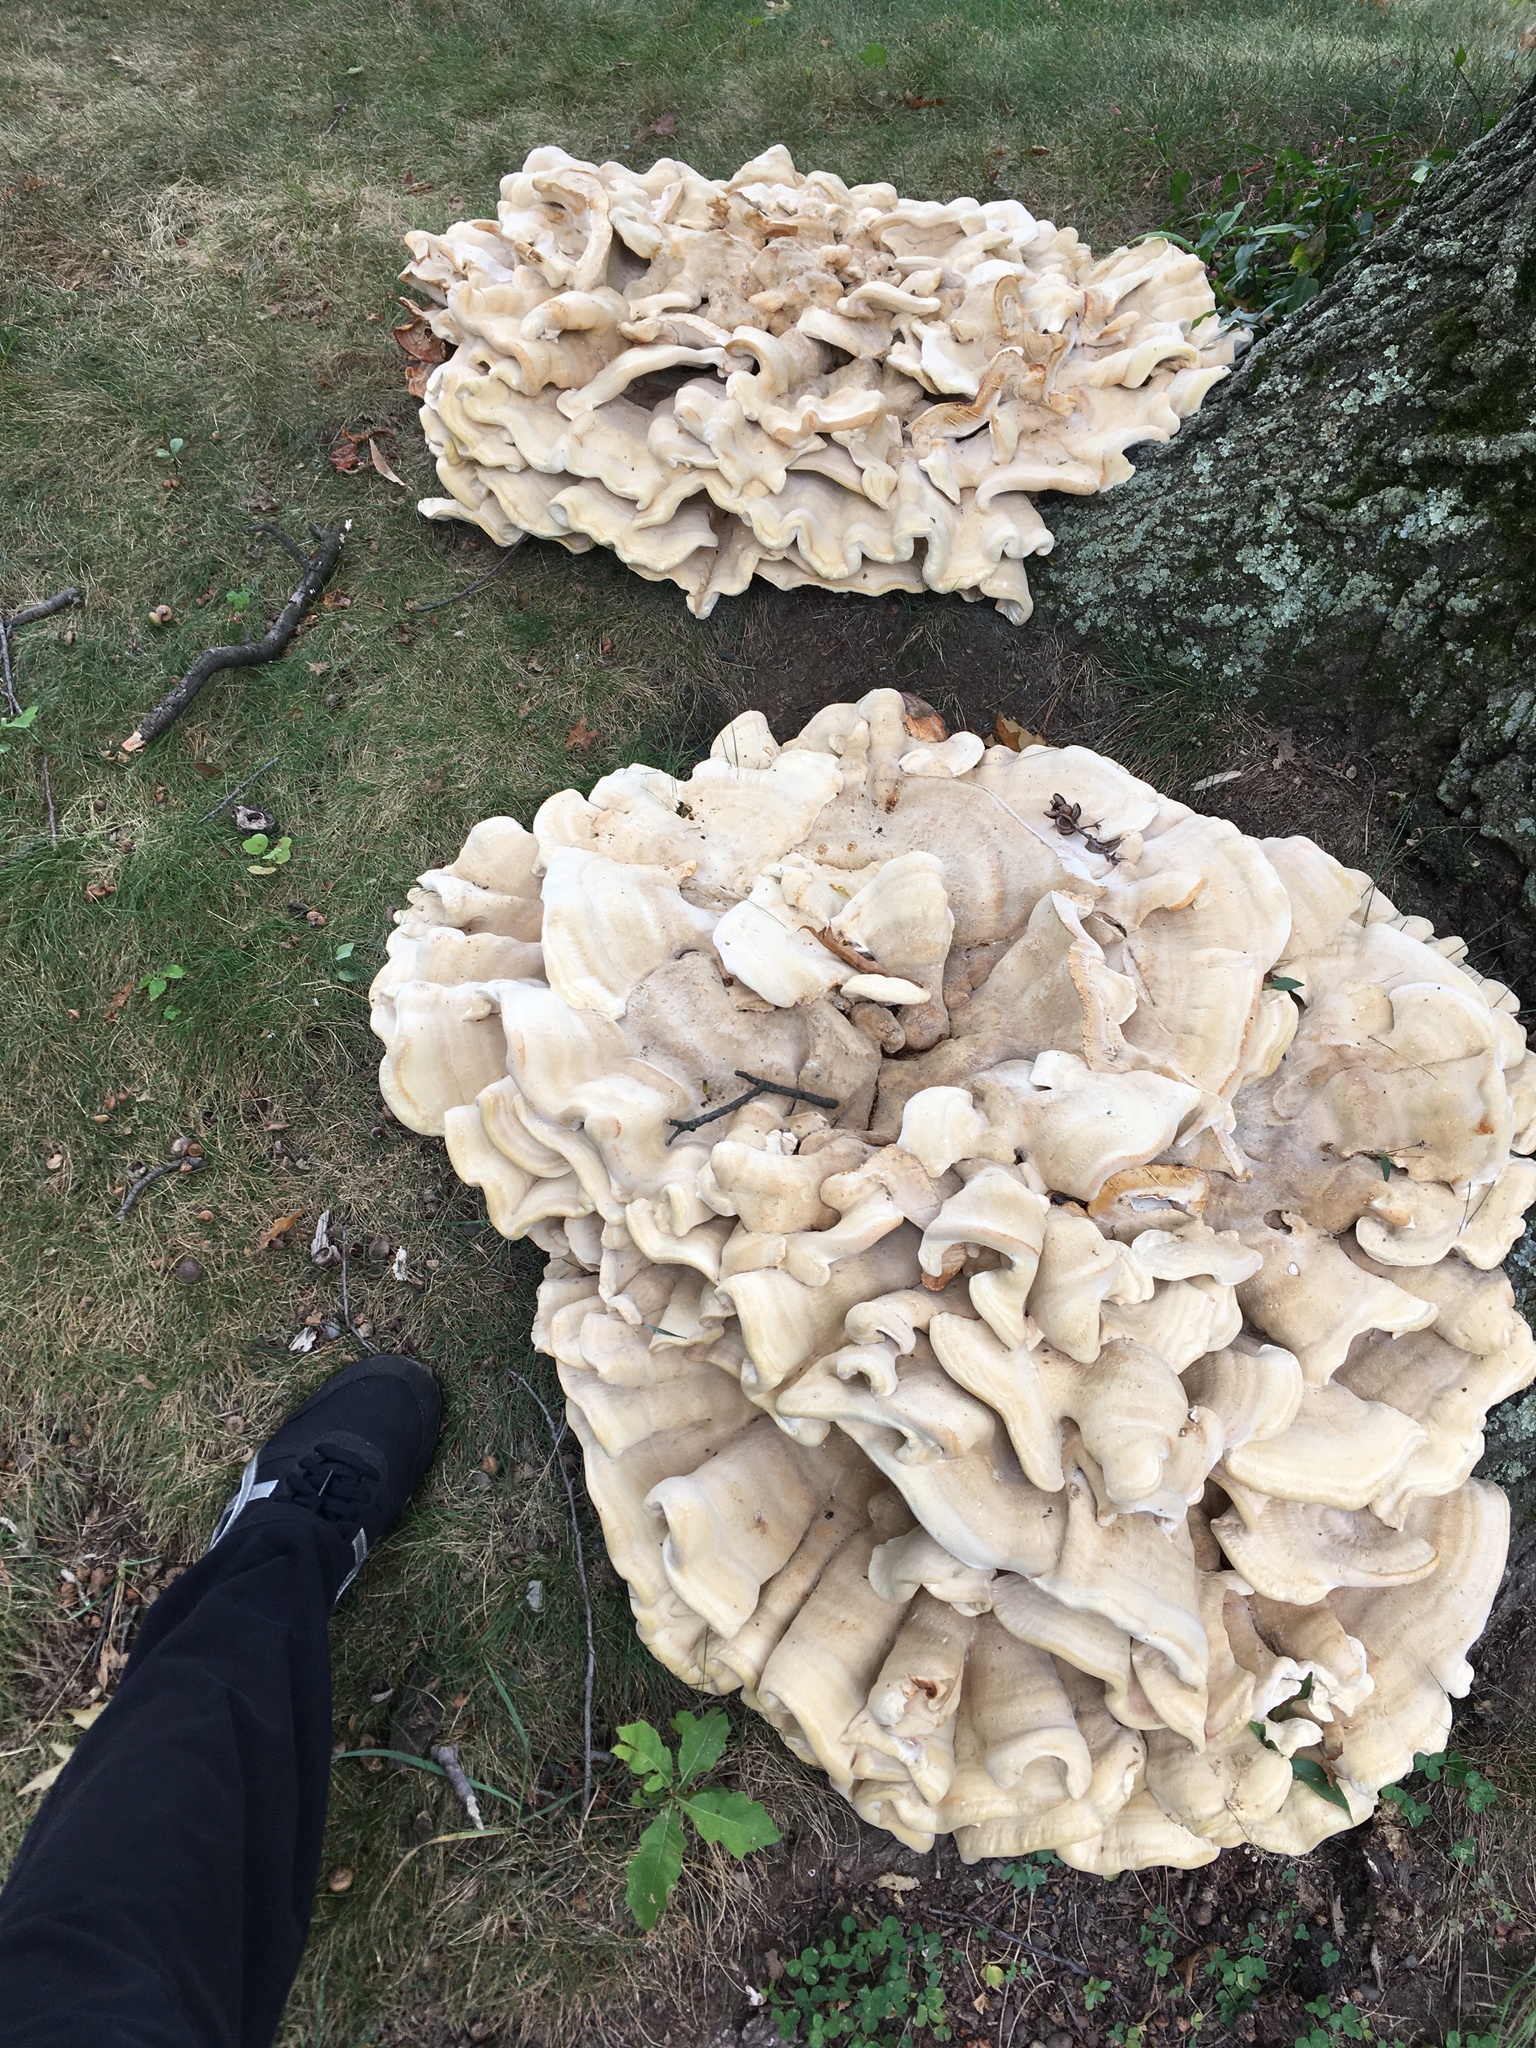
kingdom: Fungi
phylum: Basidiomycota
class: Agaricomycetes
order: Russulales
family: Bondarzewiaceae
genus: Bondarzewia
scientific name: Bondarzewia berkeleyi
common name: Berkeley's polypore
